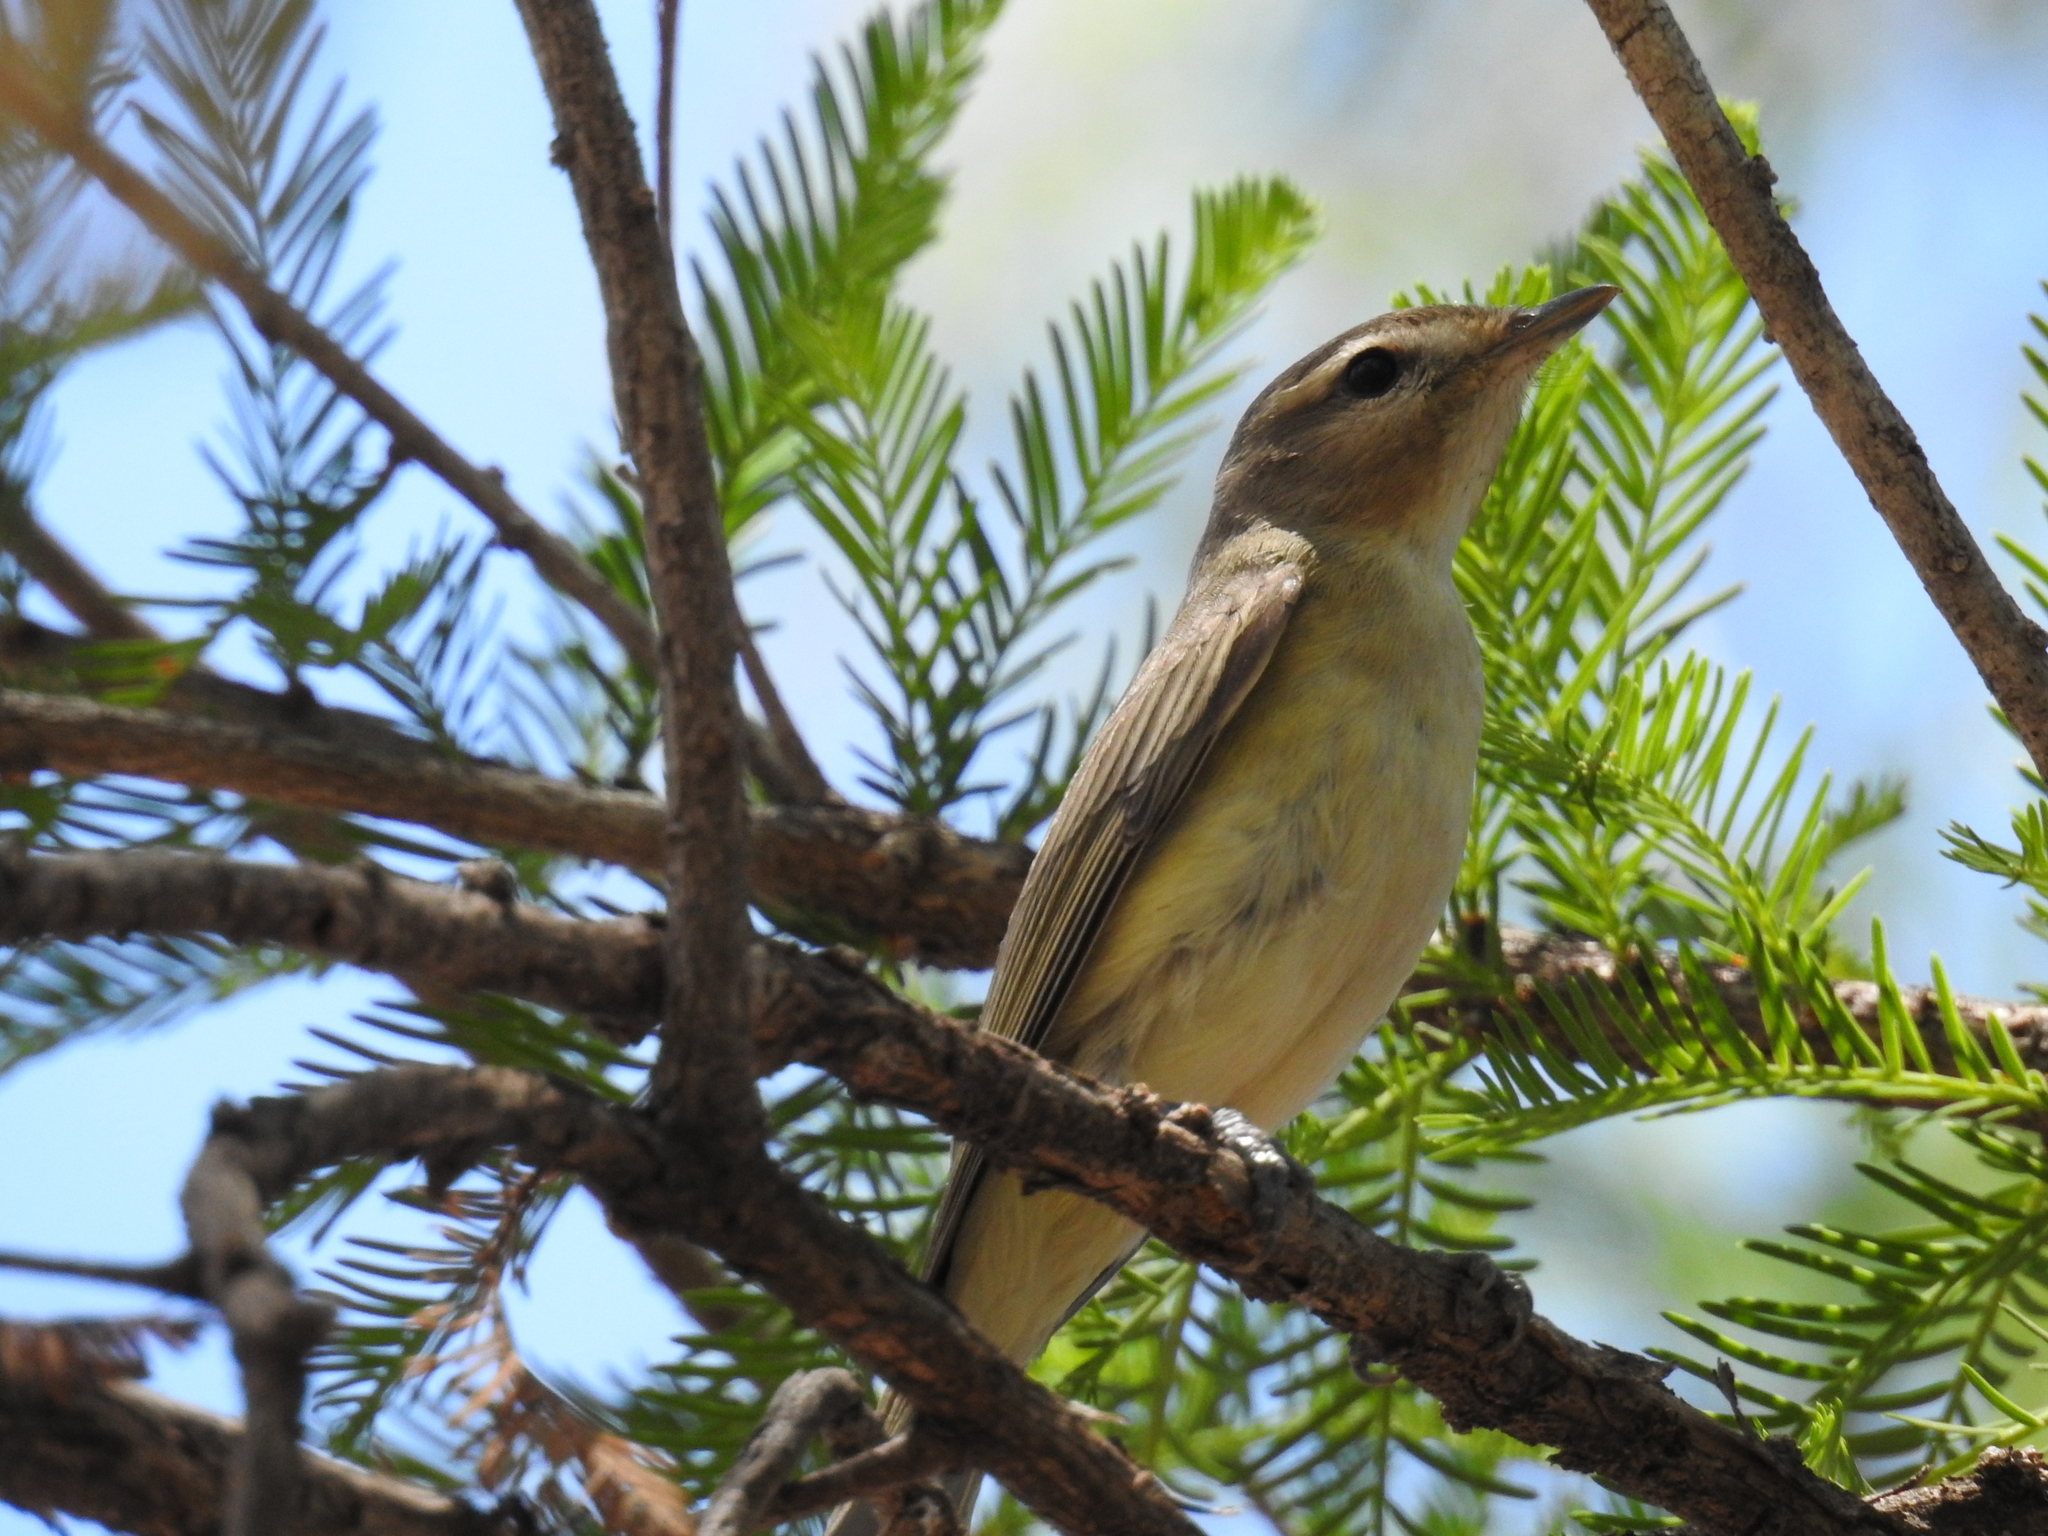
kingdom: Animalia
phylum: Chordata
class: Aves
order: Passeriformes
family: Vireonidae
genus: Vireo
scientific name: Vireo gilvus
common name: Warbling vireo
